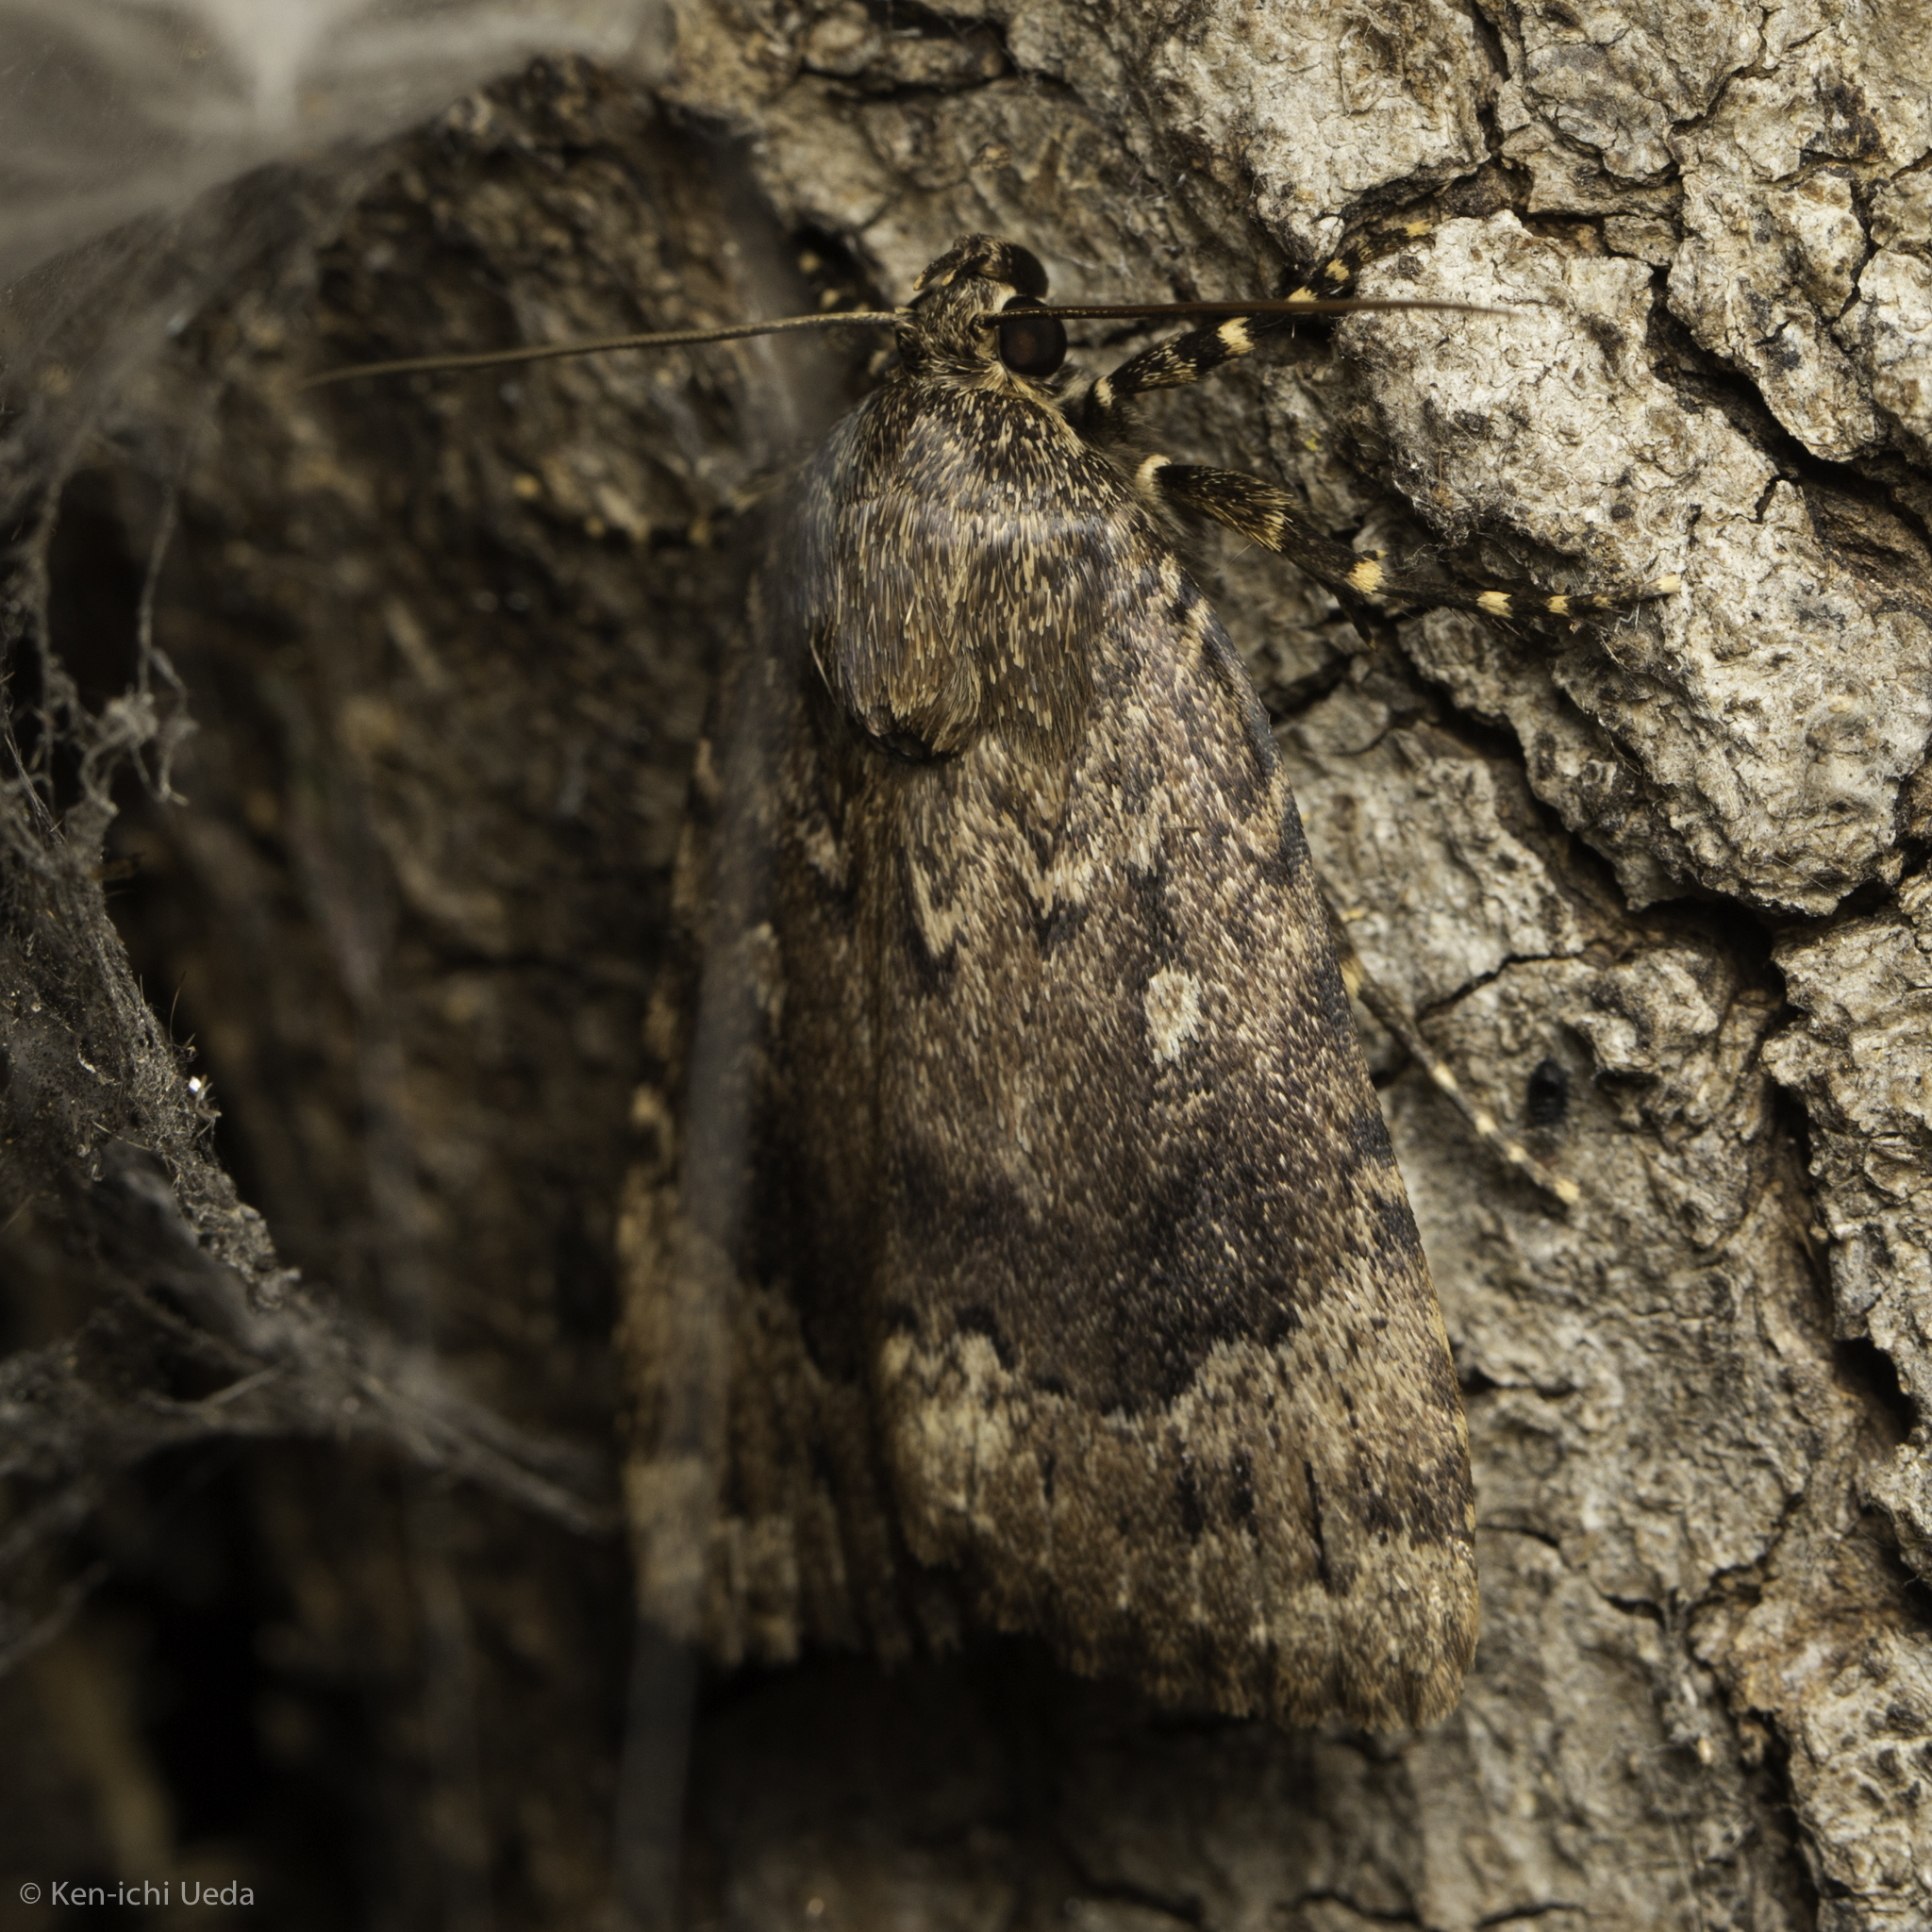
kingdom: Animalia
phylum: Arthropoda
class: Insecta
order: Lepidoptera
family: Noctuidae
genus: Amphipyra
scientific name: Amphipyra pyramidoides
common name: American copper underwing
